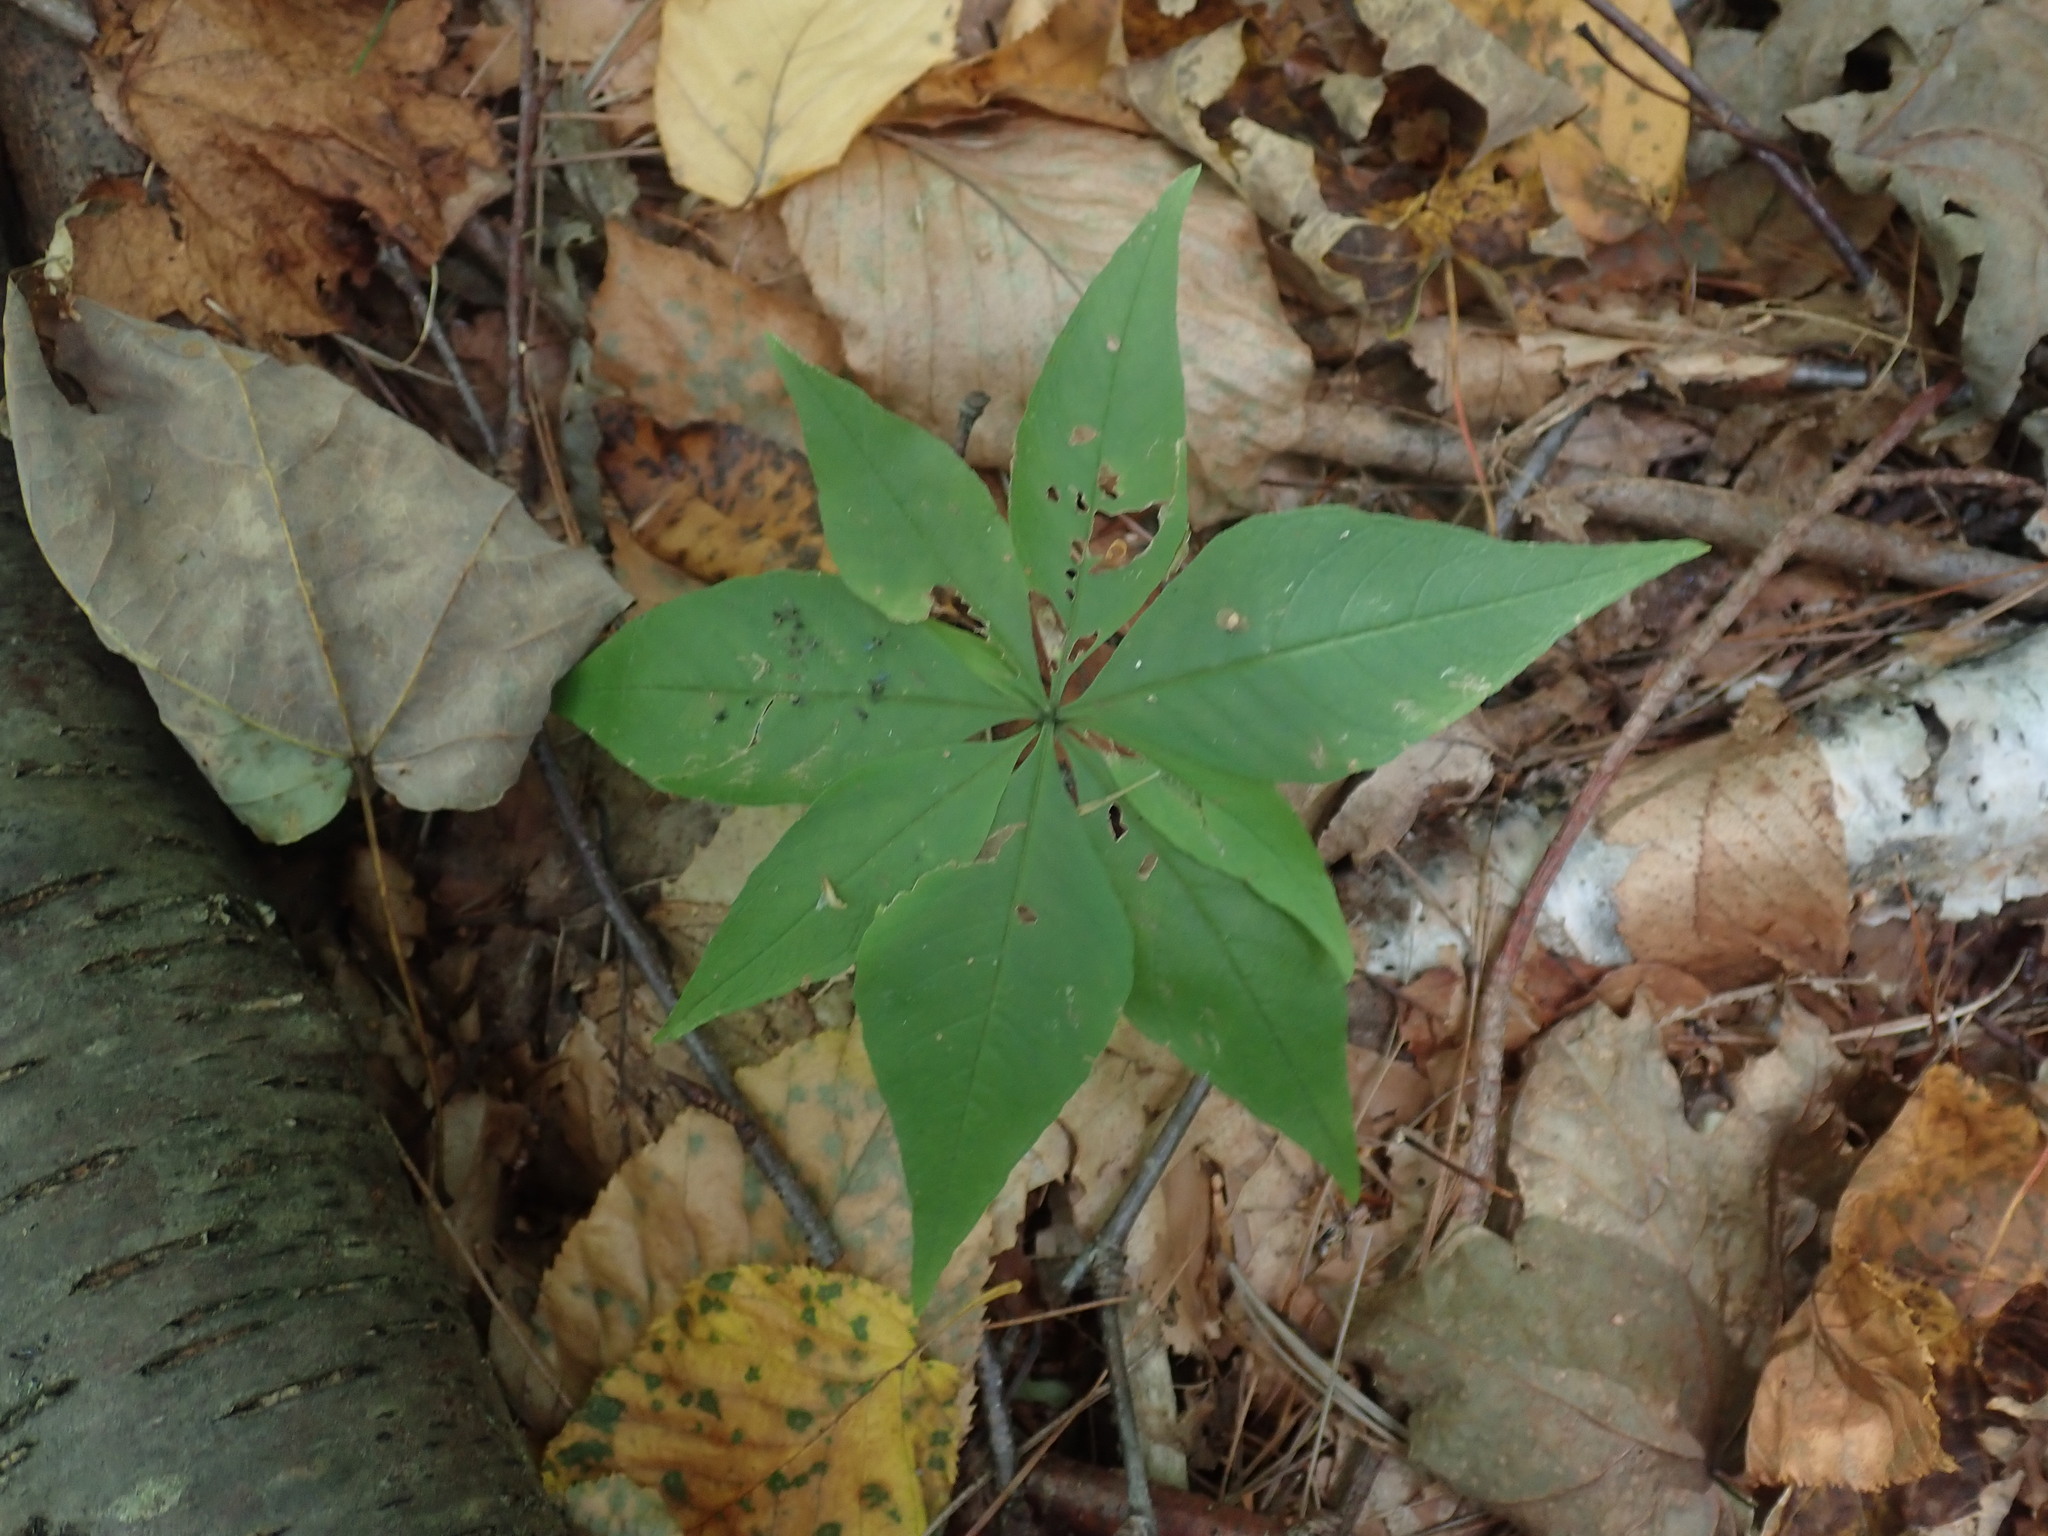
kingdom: Plantae
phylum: Tracheophyta
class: Magnoliopsida
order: Ericales
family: Primulaceae
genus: Lysimachia
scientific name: Lysimachia borealis
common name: American starflower
